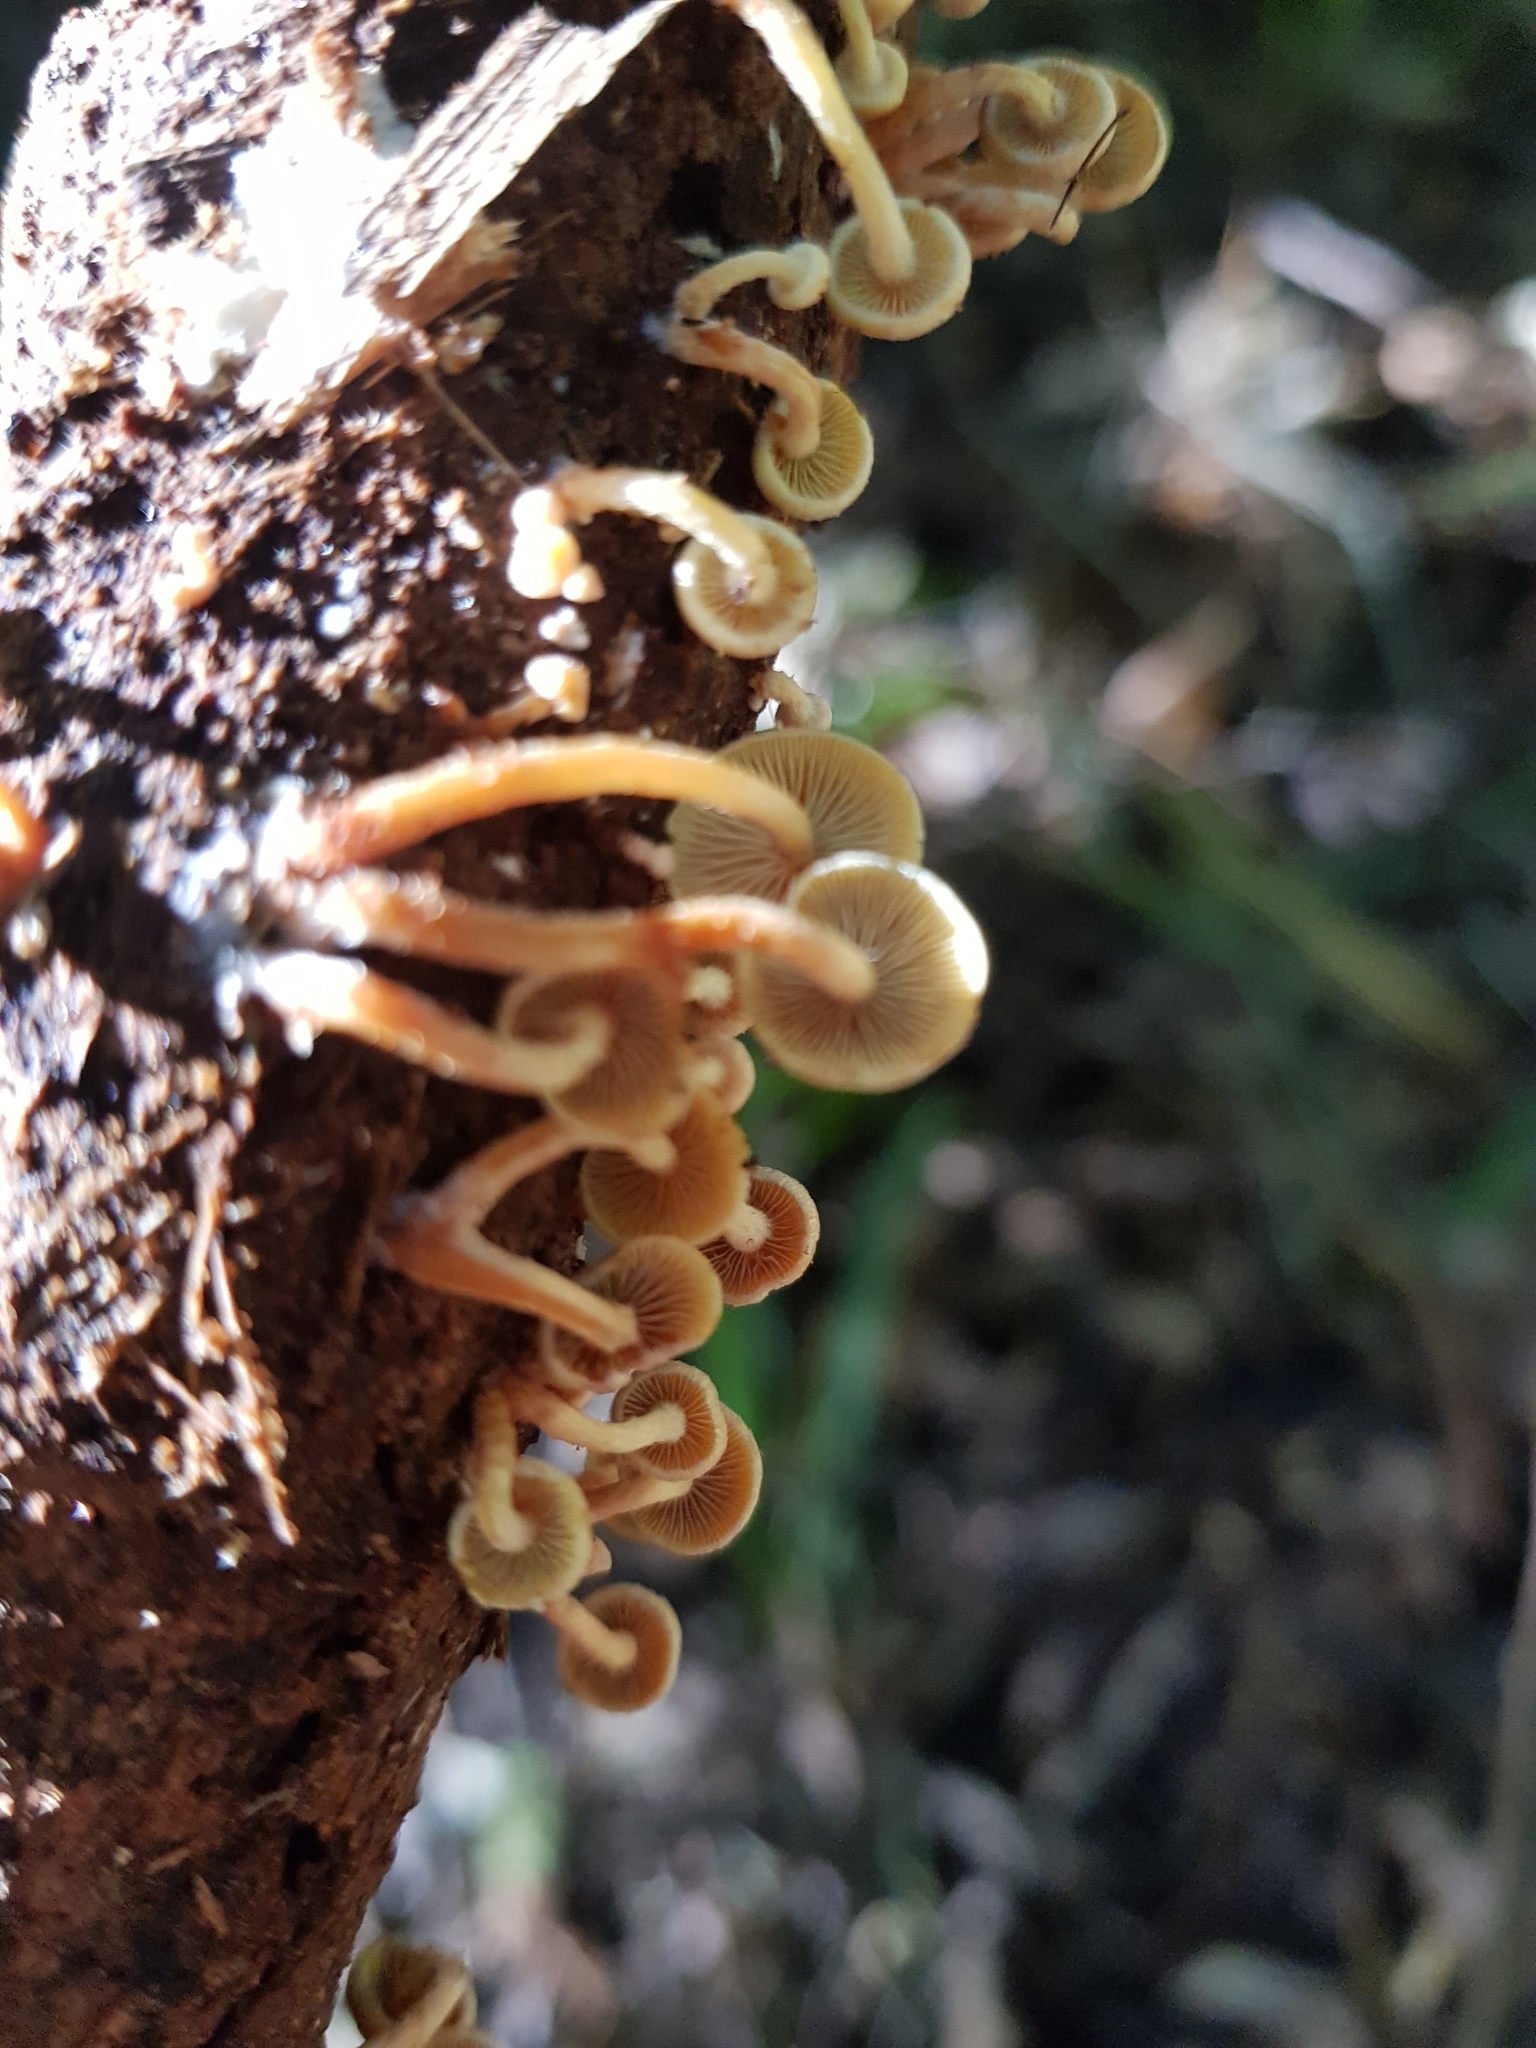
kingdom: Fungi
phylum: Basidiomycota
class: Agaricomycetes
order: Agaricales
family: Strophariaceae
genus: Hypholoma
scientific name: Hypholoma acutum
